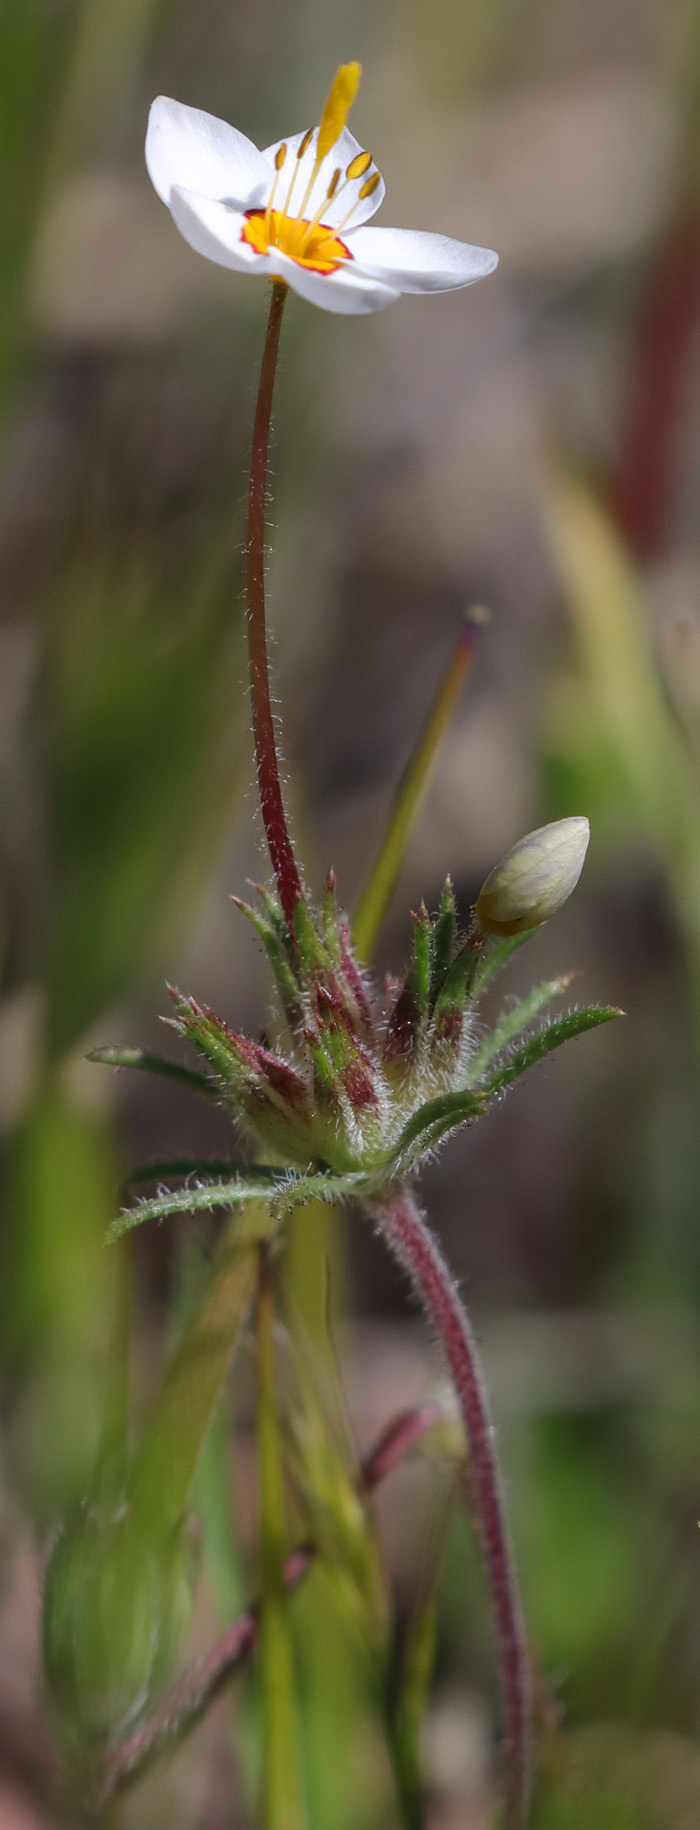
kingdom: Plantae
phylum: Tracheophyta
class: Magnoliopsida
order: Ericales
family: Polemoniaceae
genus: Leptosiphon
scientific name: Leptosiphon parviflorus
